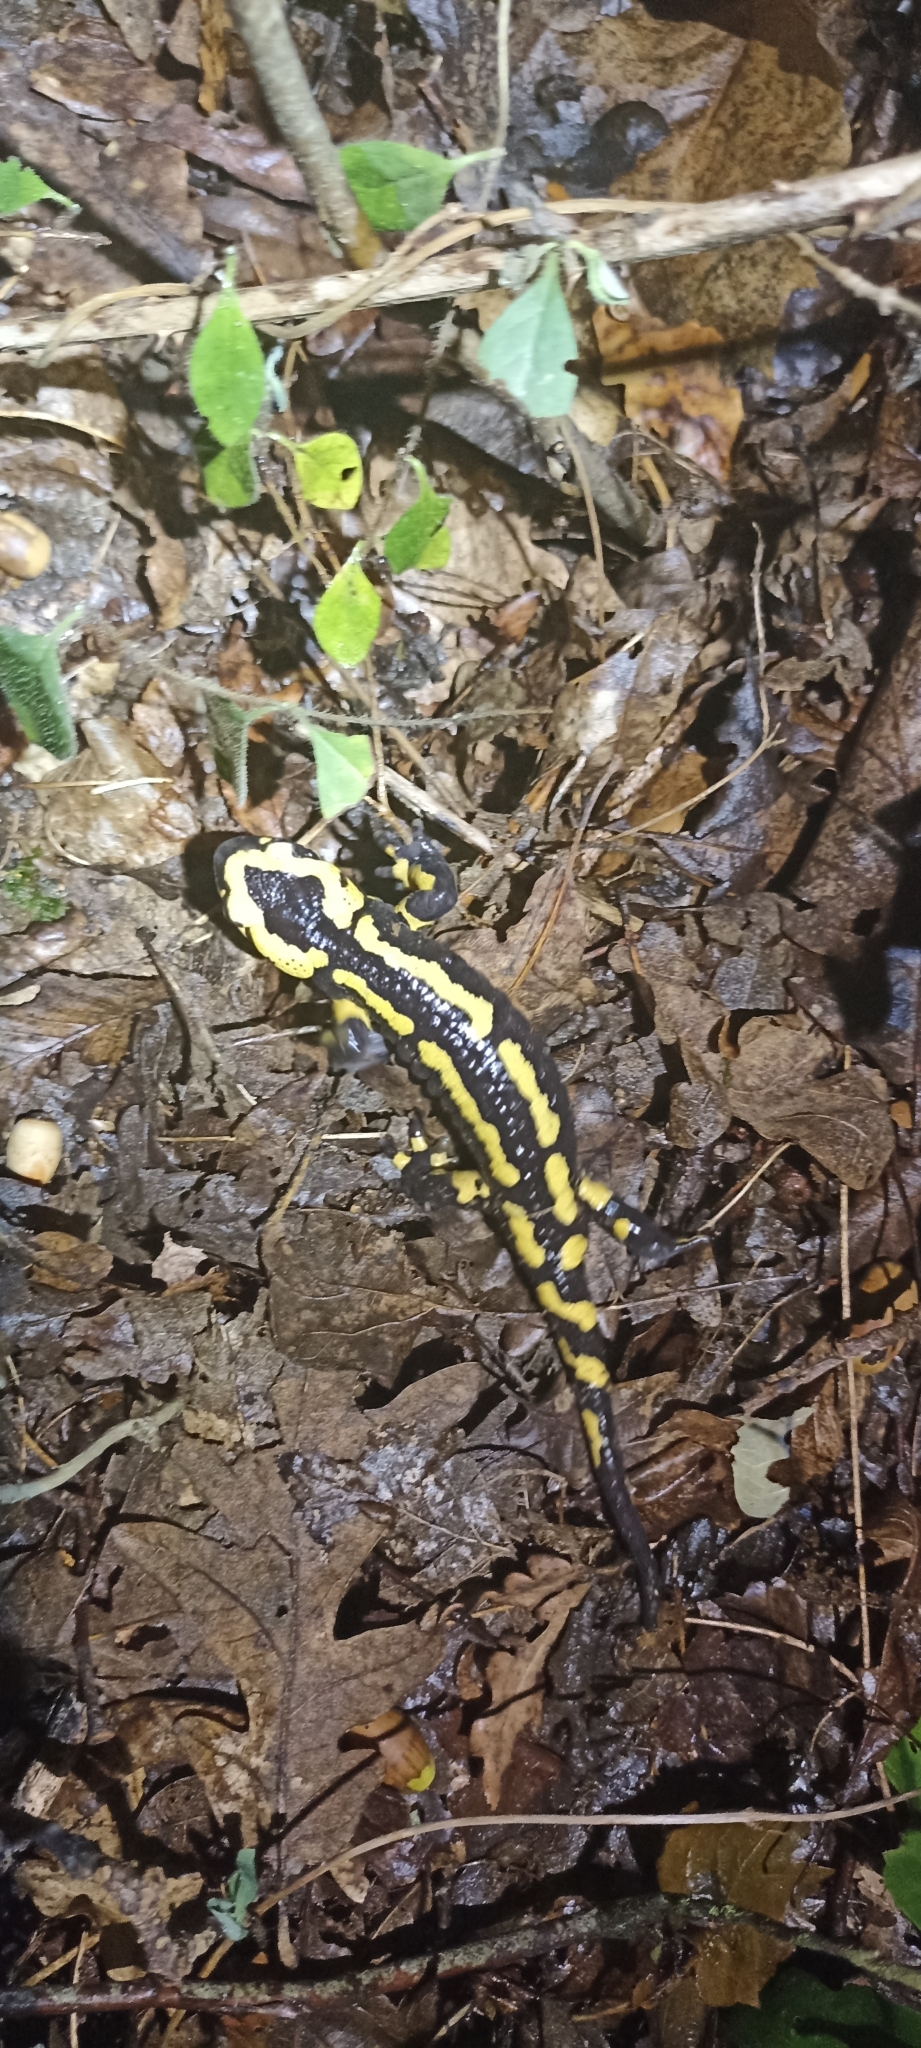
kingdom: Animalia
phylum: Chordata
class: Amphibia
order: Caudata
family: Salamandridae
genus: Salamandra
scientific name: Salamandra salamandra
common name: Fire salamander
